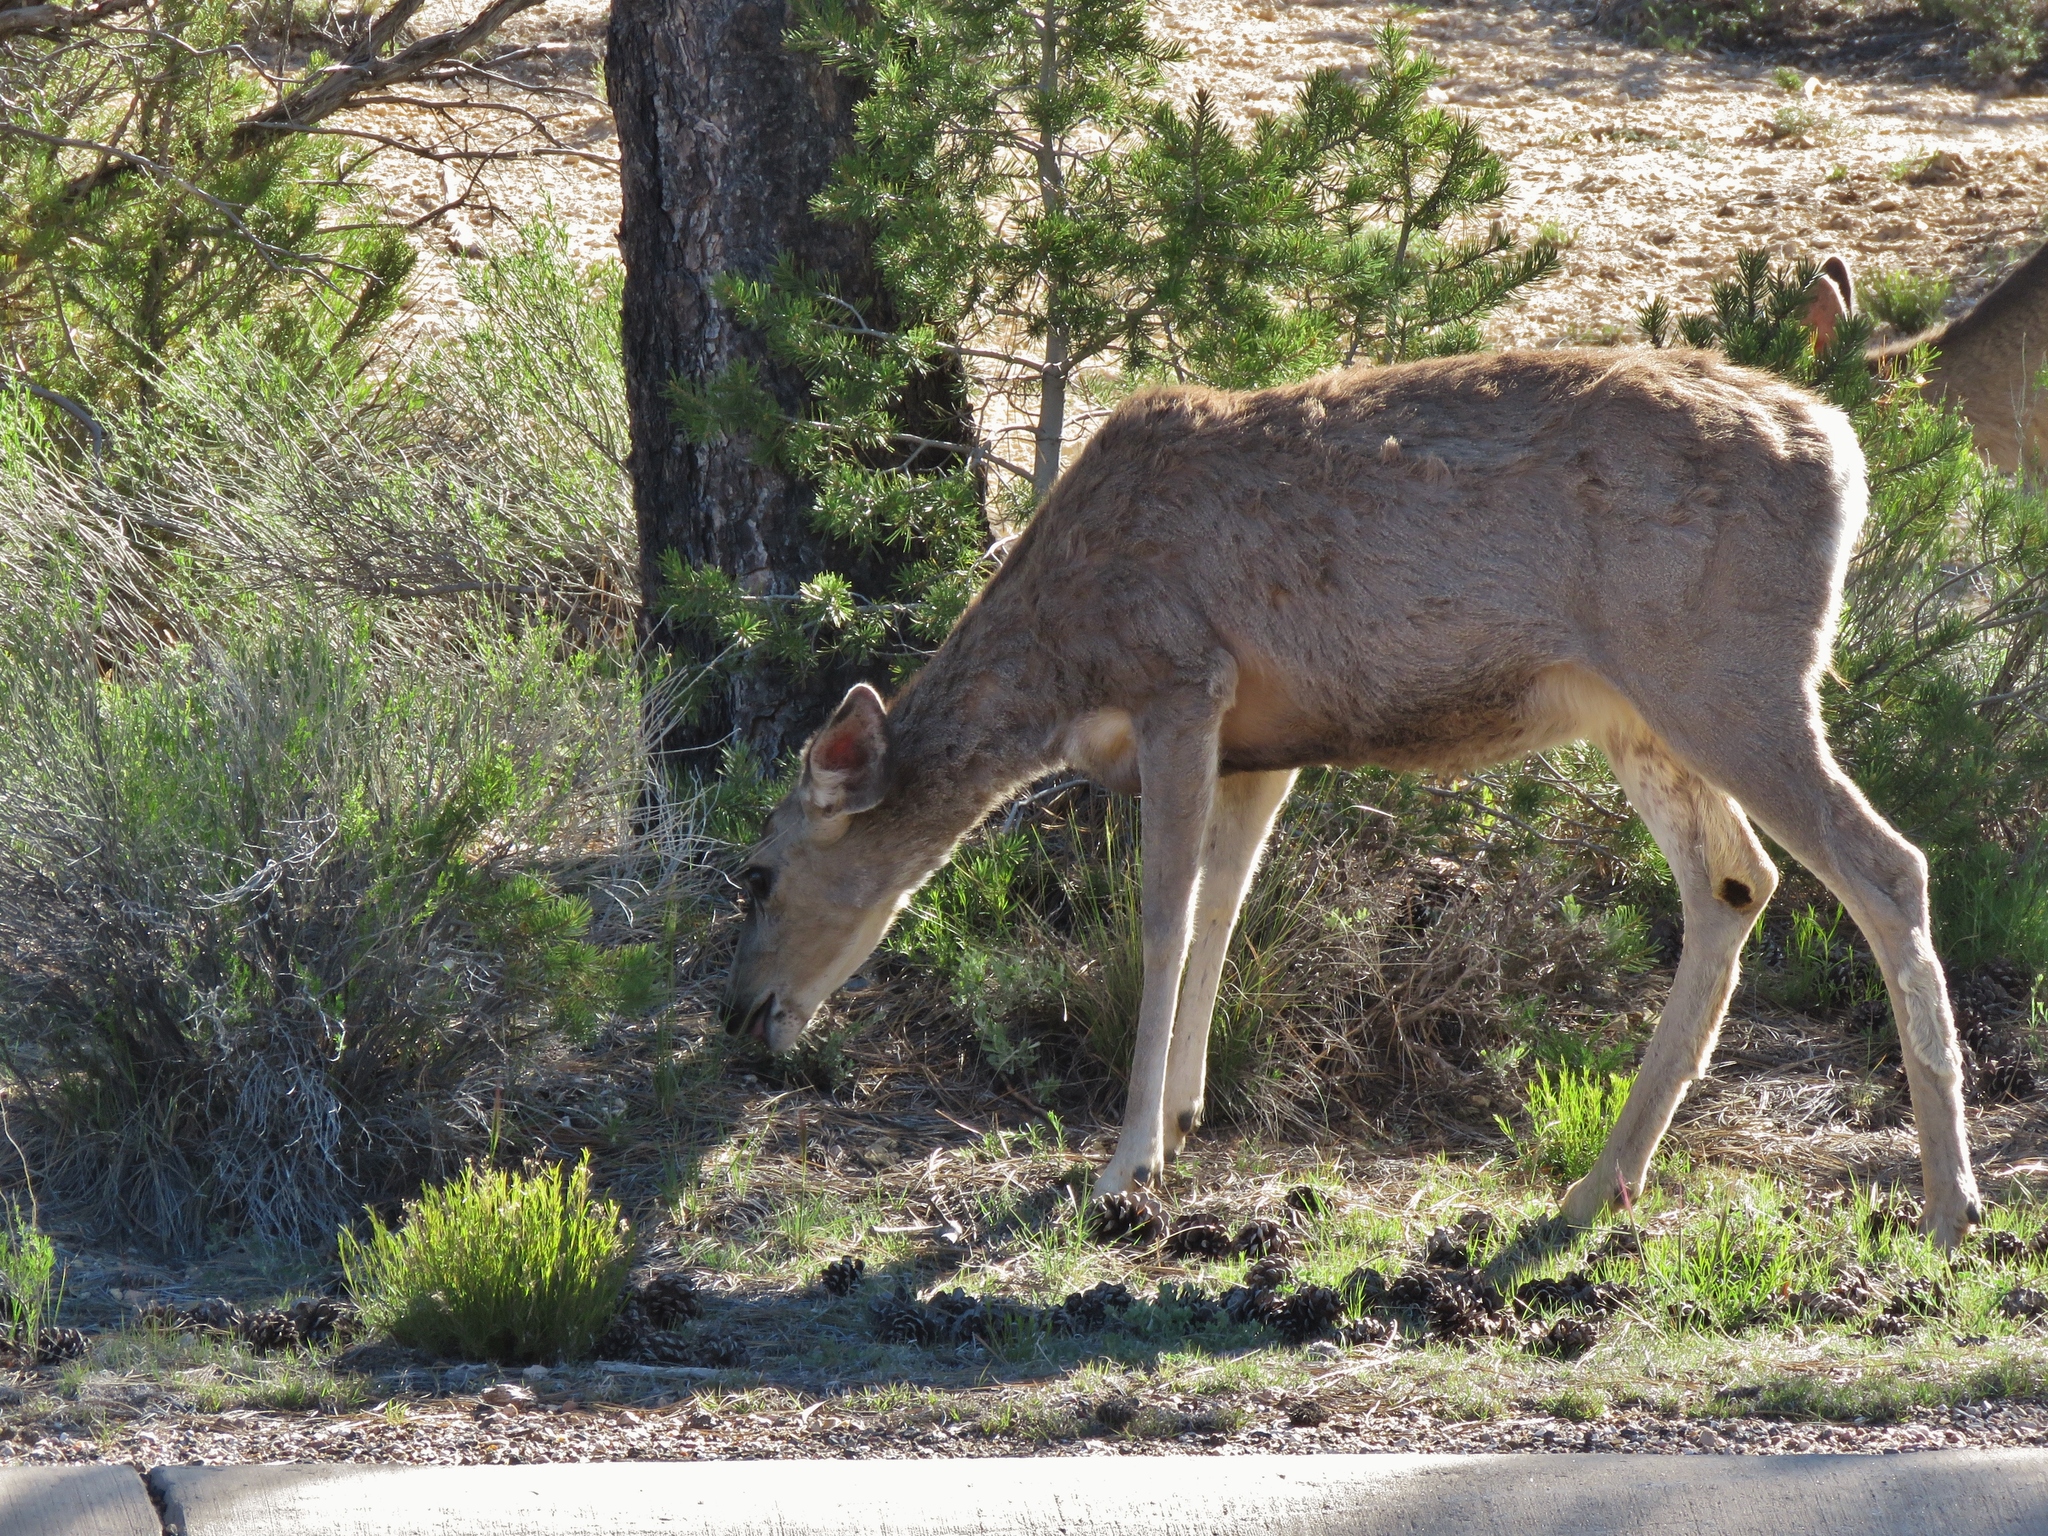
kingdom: Animalia
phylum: Chordata
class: Mammalia
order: Artiodactyla
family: Cervidae
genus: Odocoileus
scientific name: Odocoileus hemionus
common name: Mule deer
